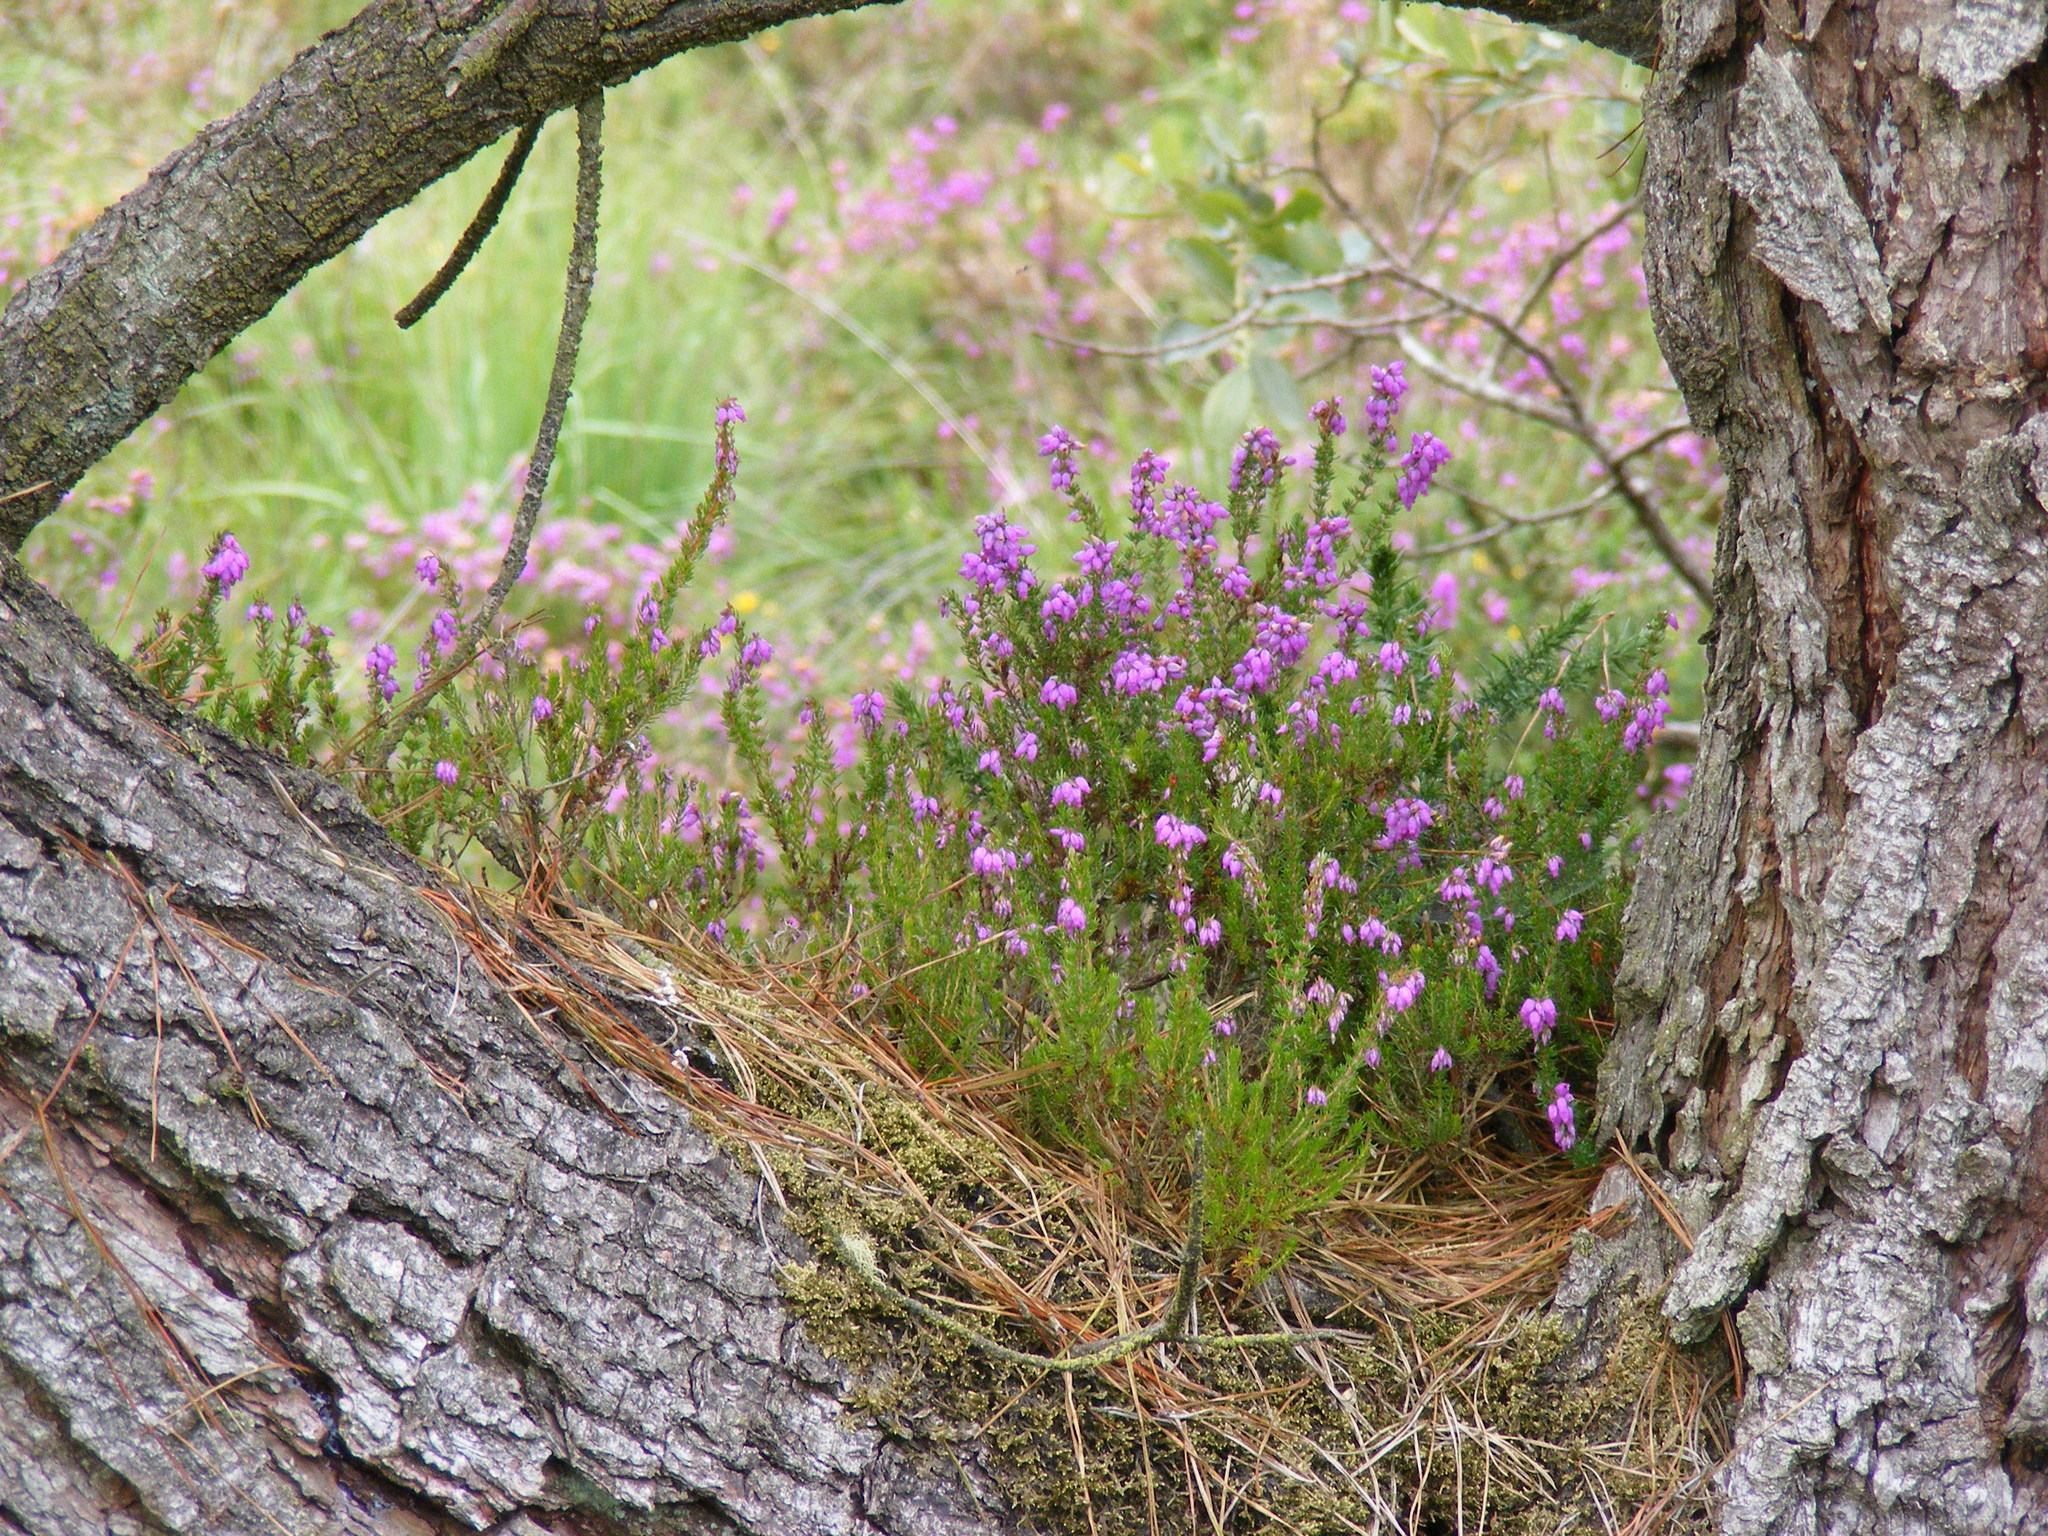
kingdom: Plantae
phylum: Tracheophyta
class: Magnoliopsida
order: Ericales
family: Ericaceae
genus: Erica
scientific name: Erica cinerea
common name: Bell heather
